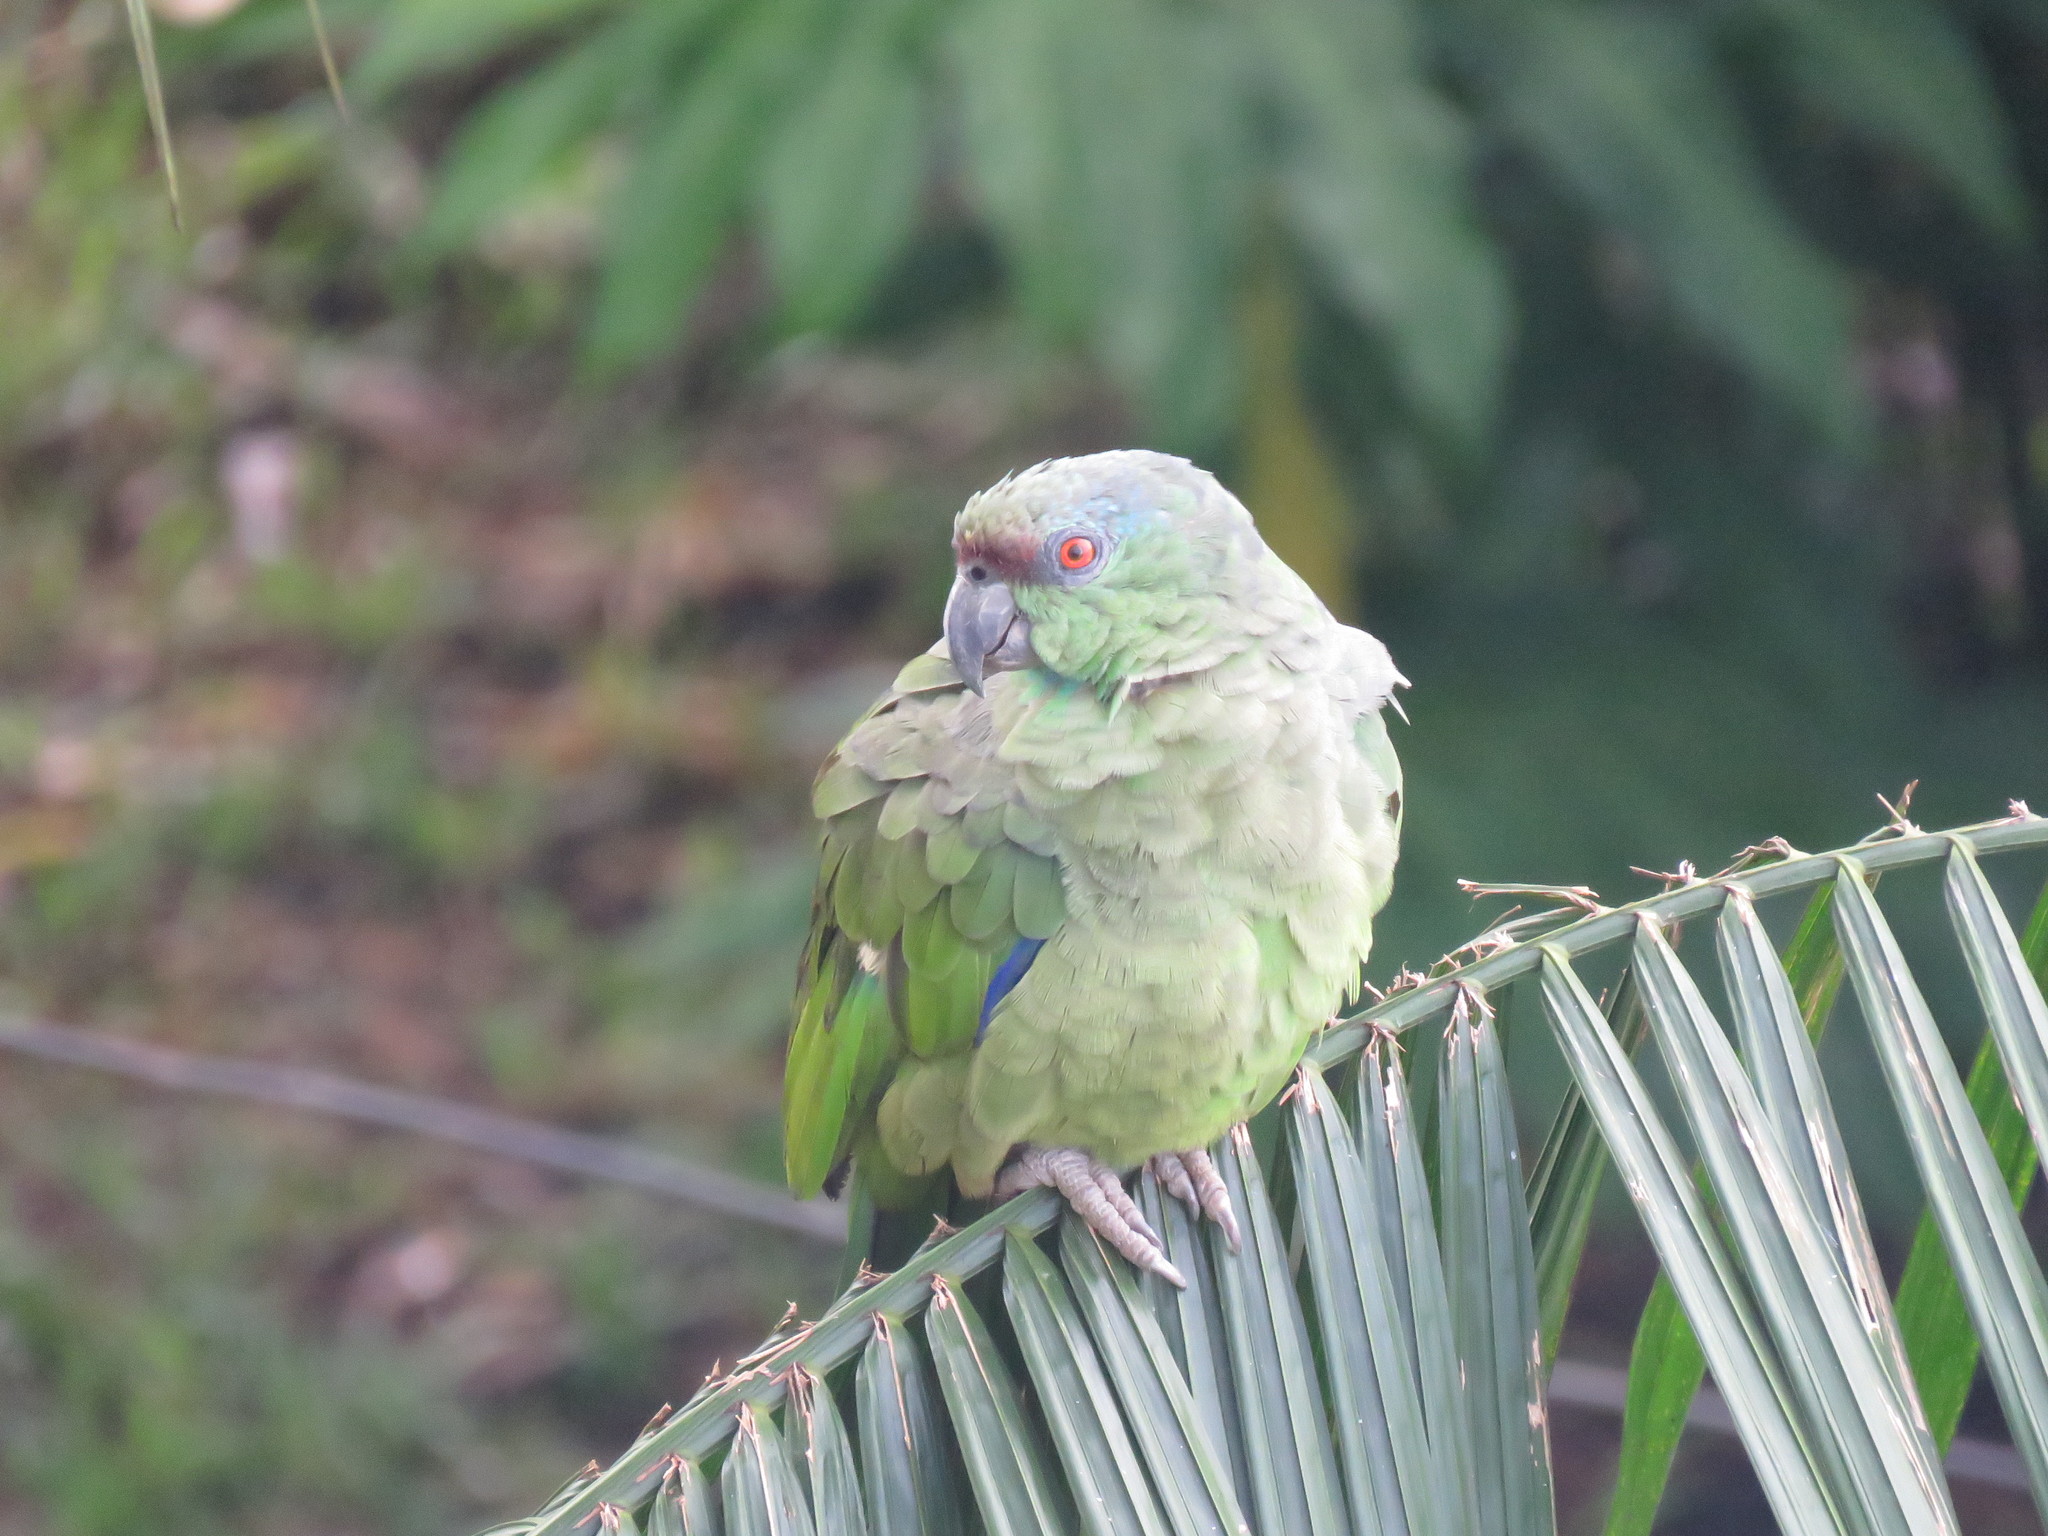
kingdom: Animalia
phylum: Chordata
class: Aves
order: Psittaciformes
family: Psittacidae
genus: Amazona
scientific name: Amazona festiva
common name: Festive amazon
